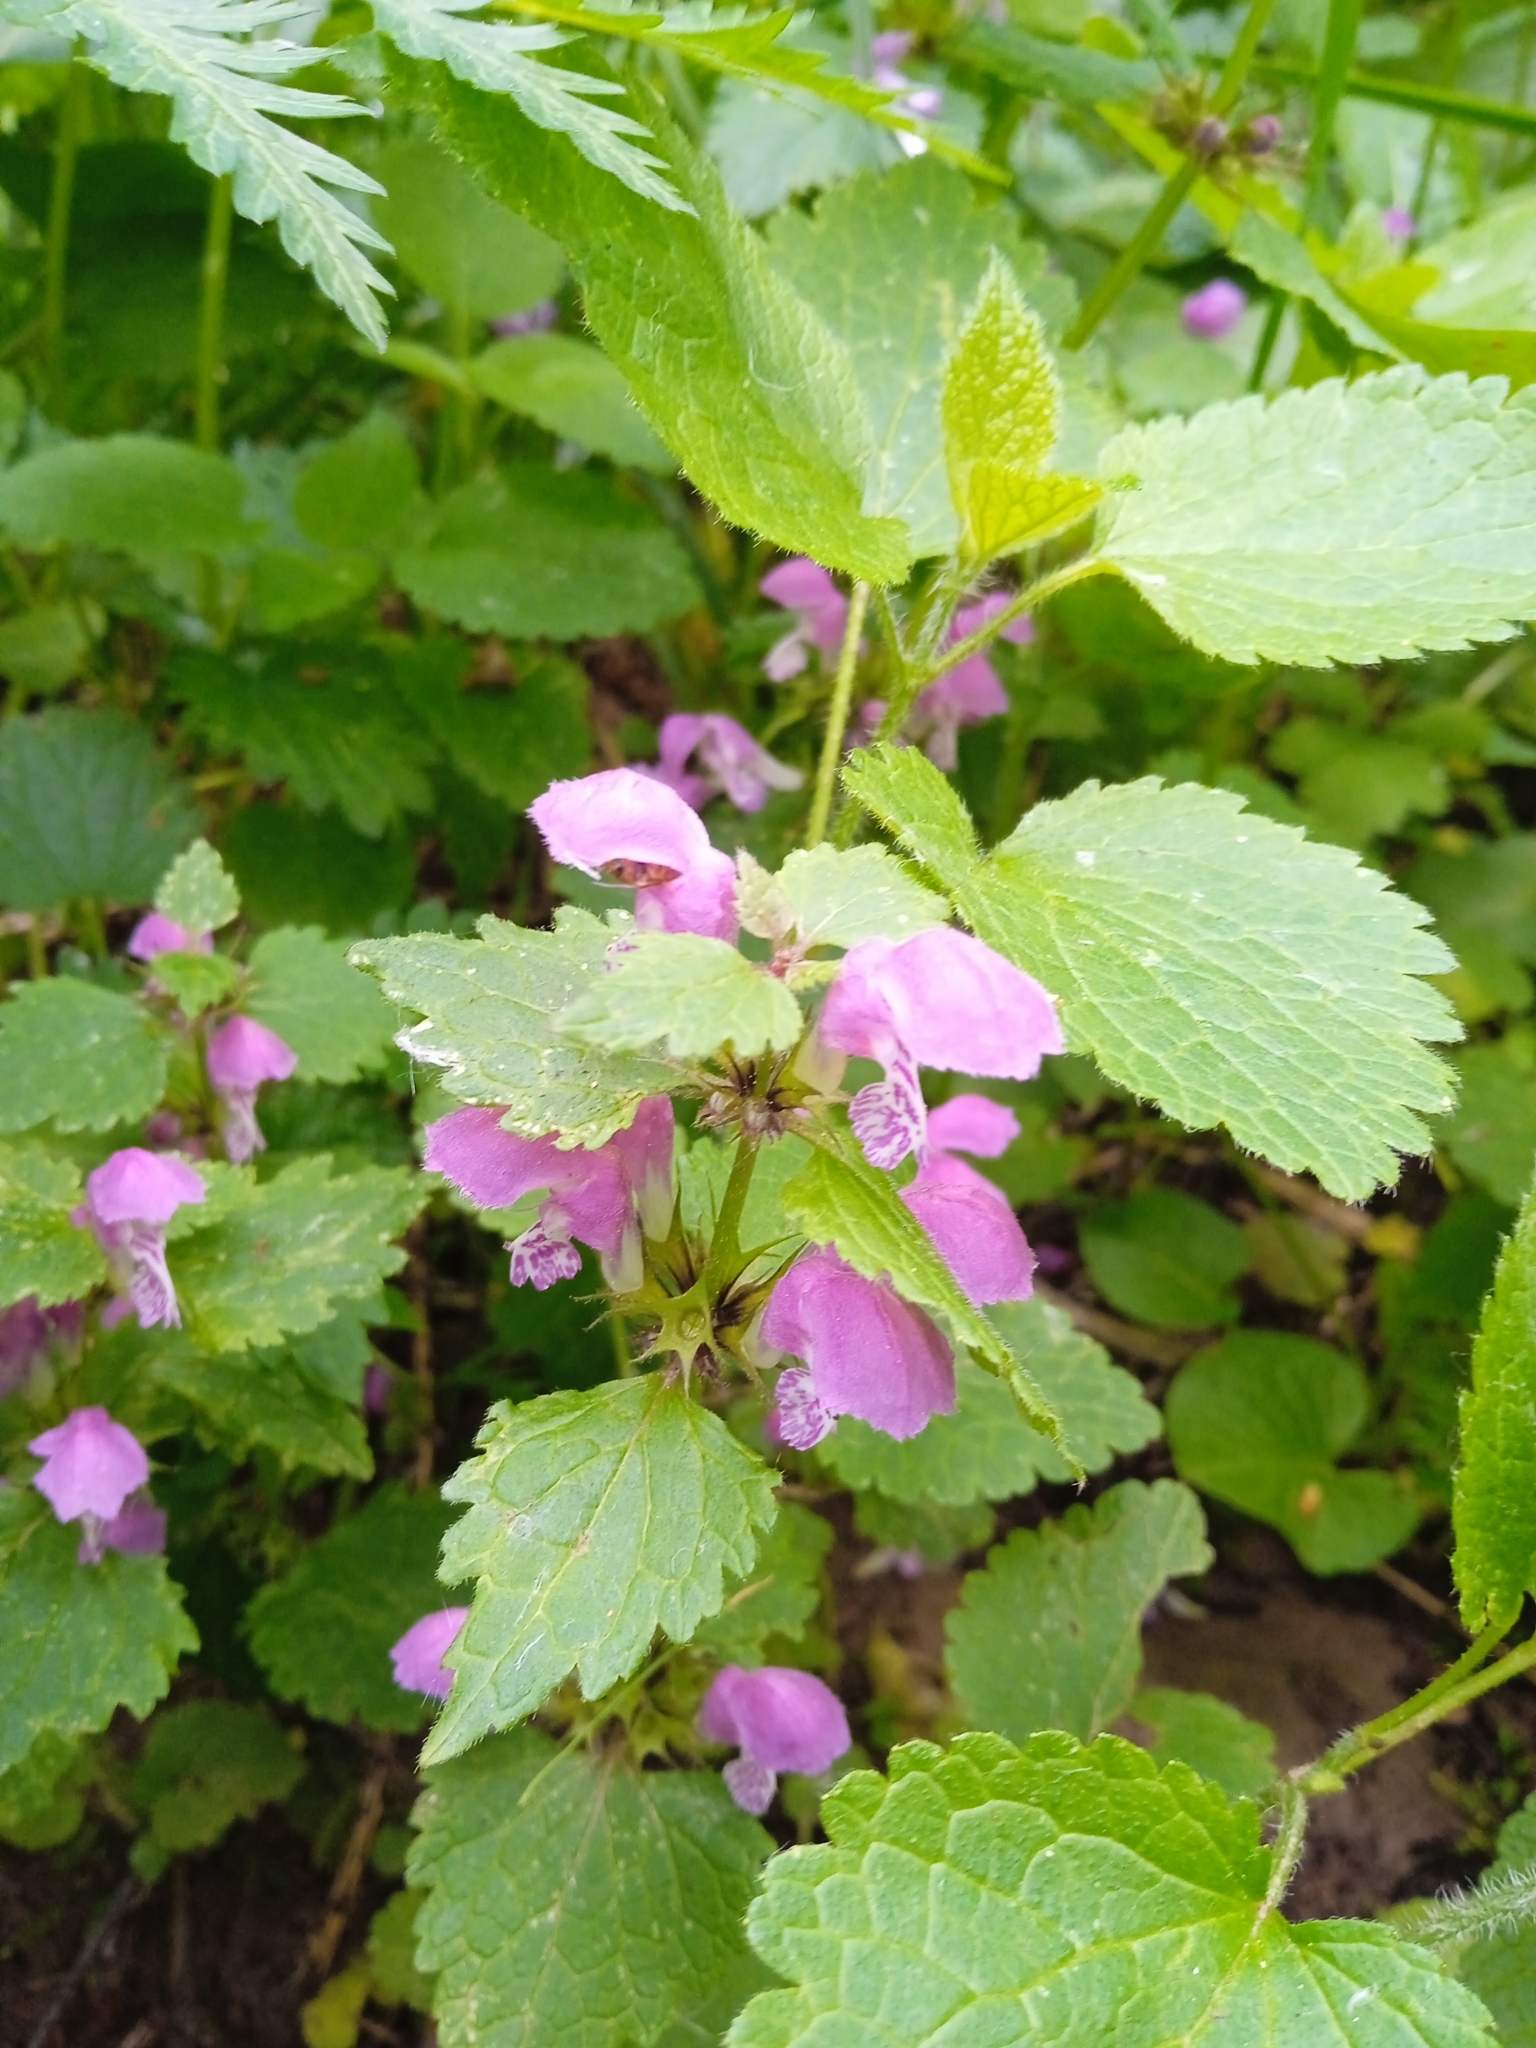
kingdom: Plantae
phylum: Tracheophyta
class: Magnoliopsida
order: Lamiales
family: Lamiaceae
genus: Lamium
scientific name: Lamium maculatum
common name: Spotted dead-nettle
